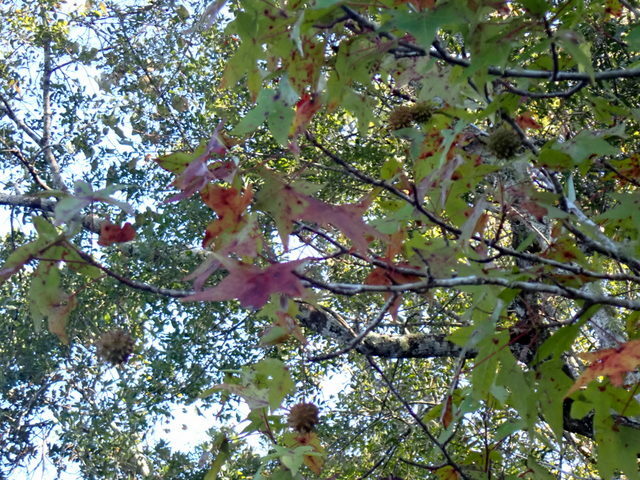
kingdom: Plantae
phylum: Tracheophyta
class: Magnoliopsida
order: Saxifragales
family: Altingiaceae
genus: Liquidambar
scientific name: Liquidambar styraciflua
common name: Sweet gum
